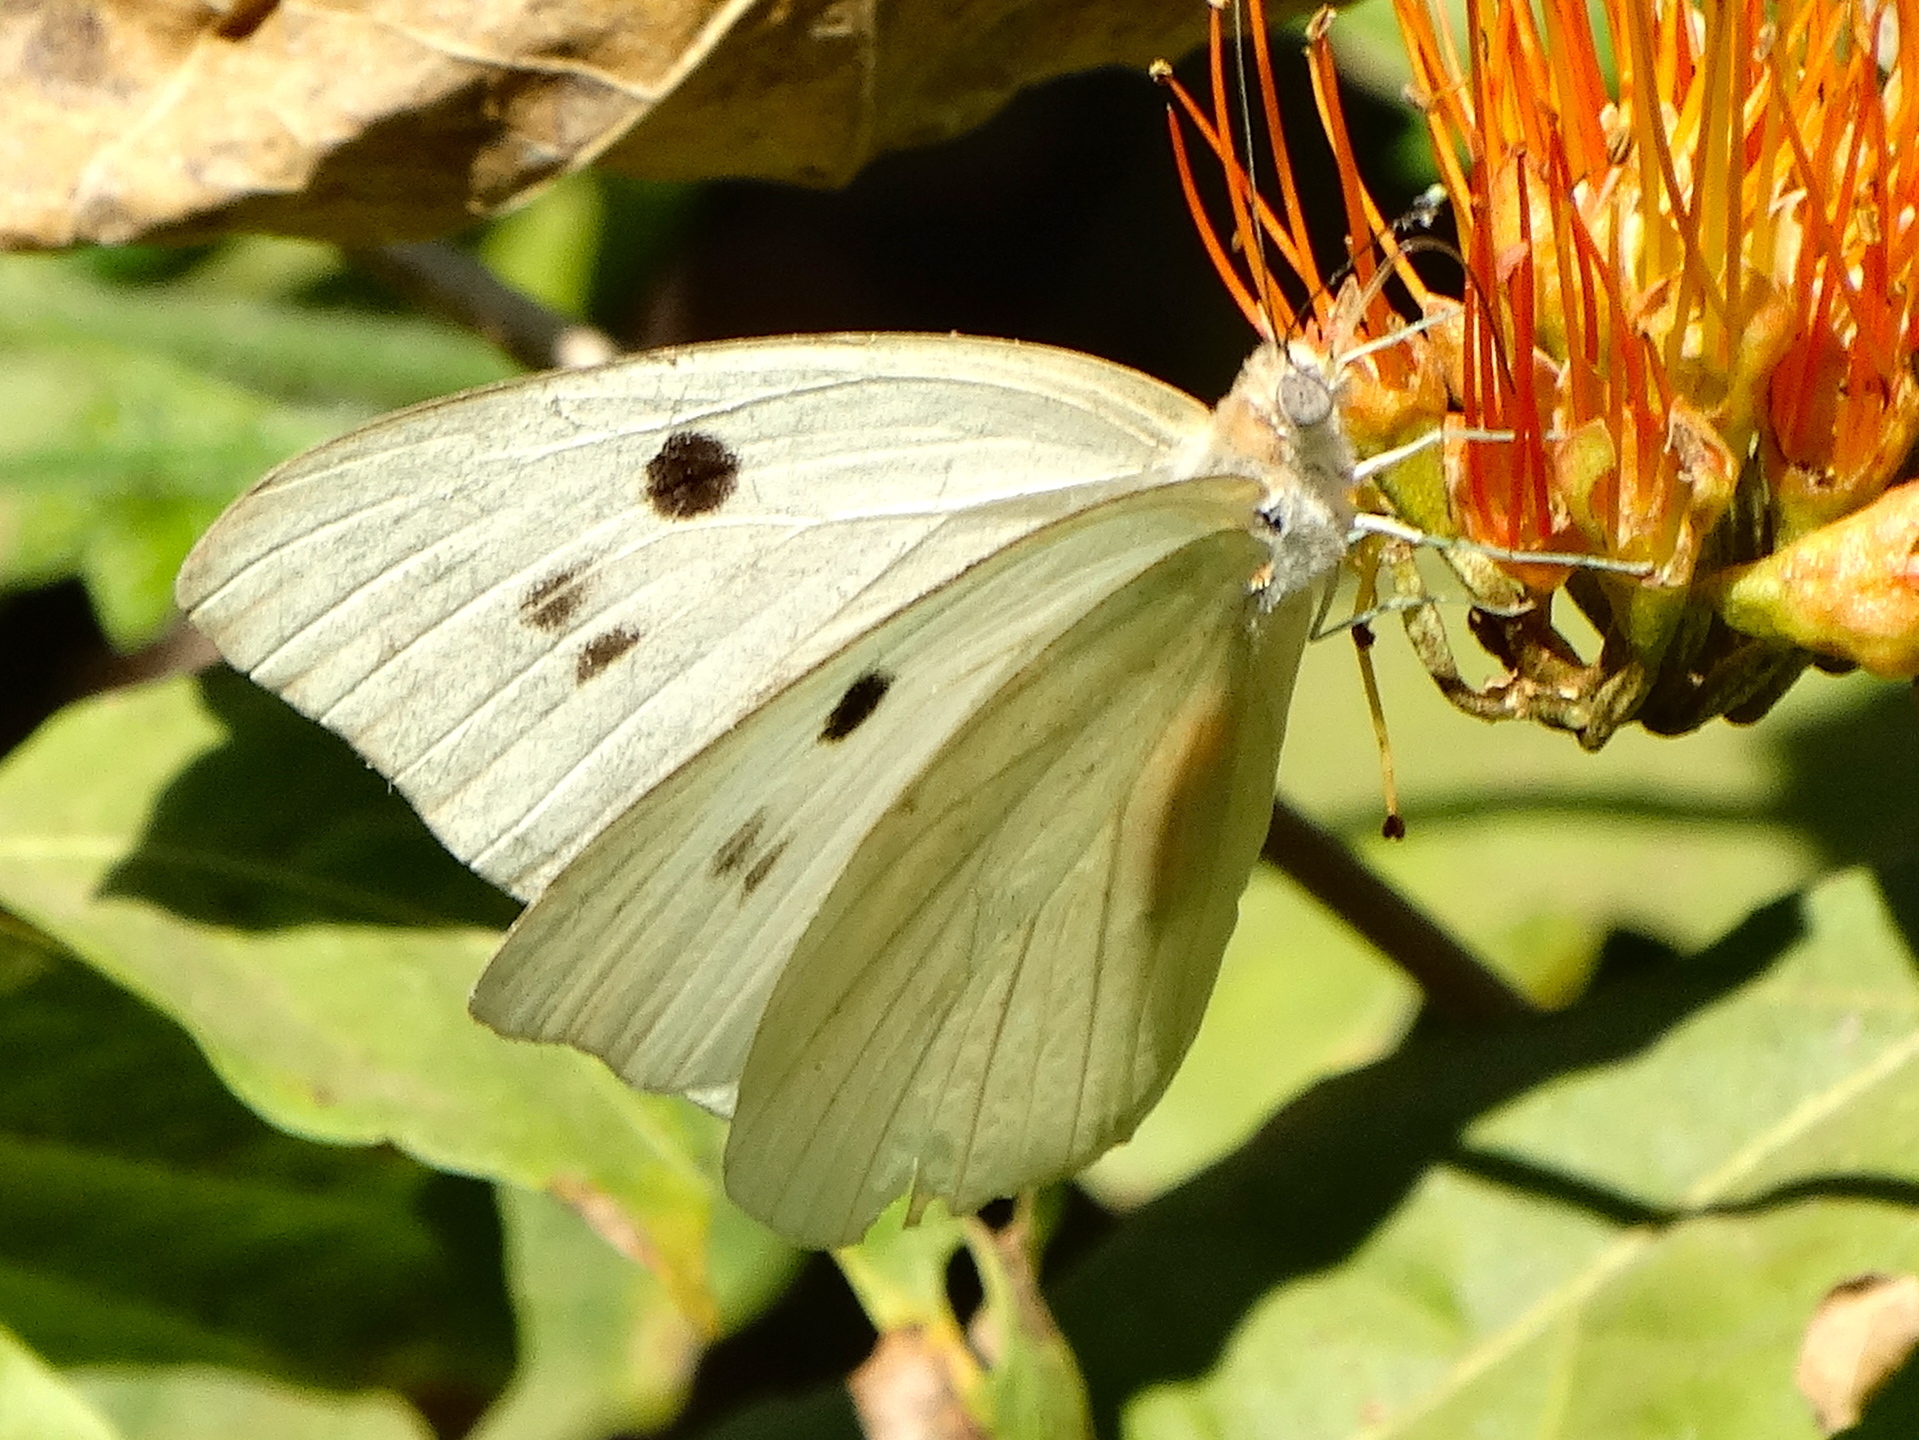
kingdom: Animalia
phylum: Arthropoda
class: Insecta
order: Lepidoptera
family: Pieridae
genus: Ganyra
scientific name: Ganyra josephina
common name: Giant white
